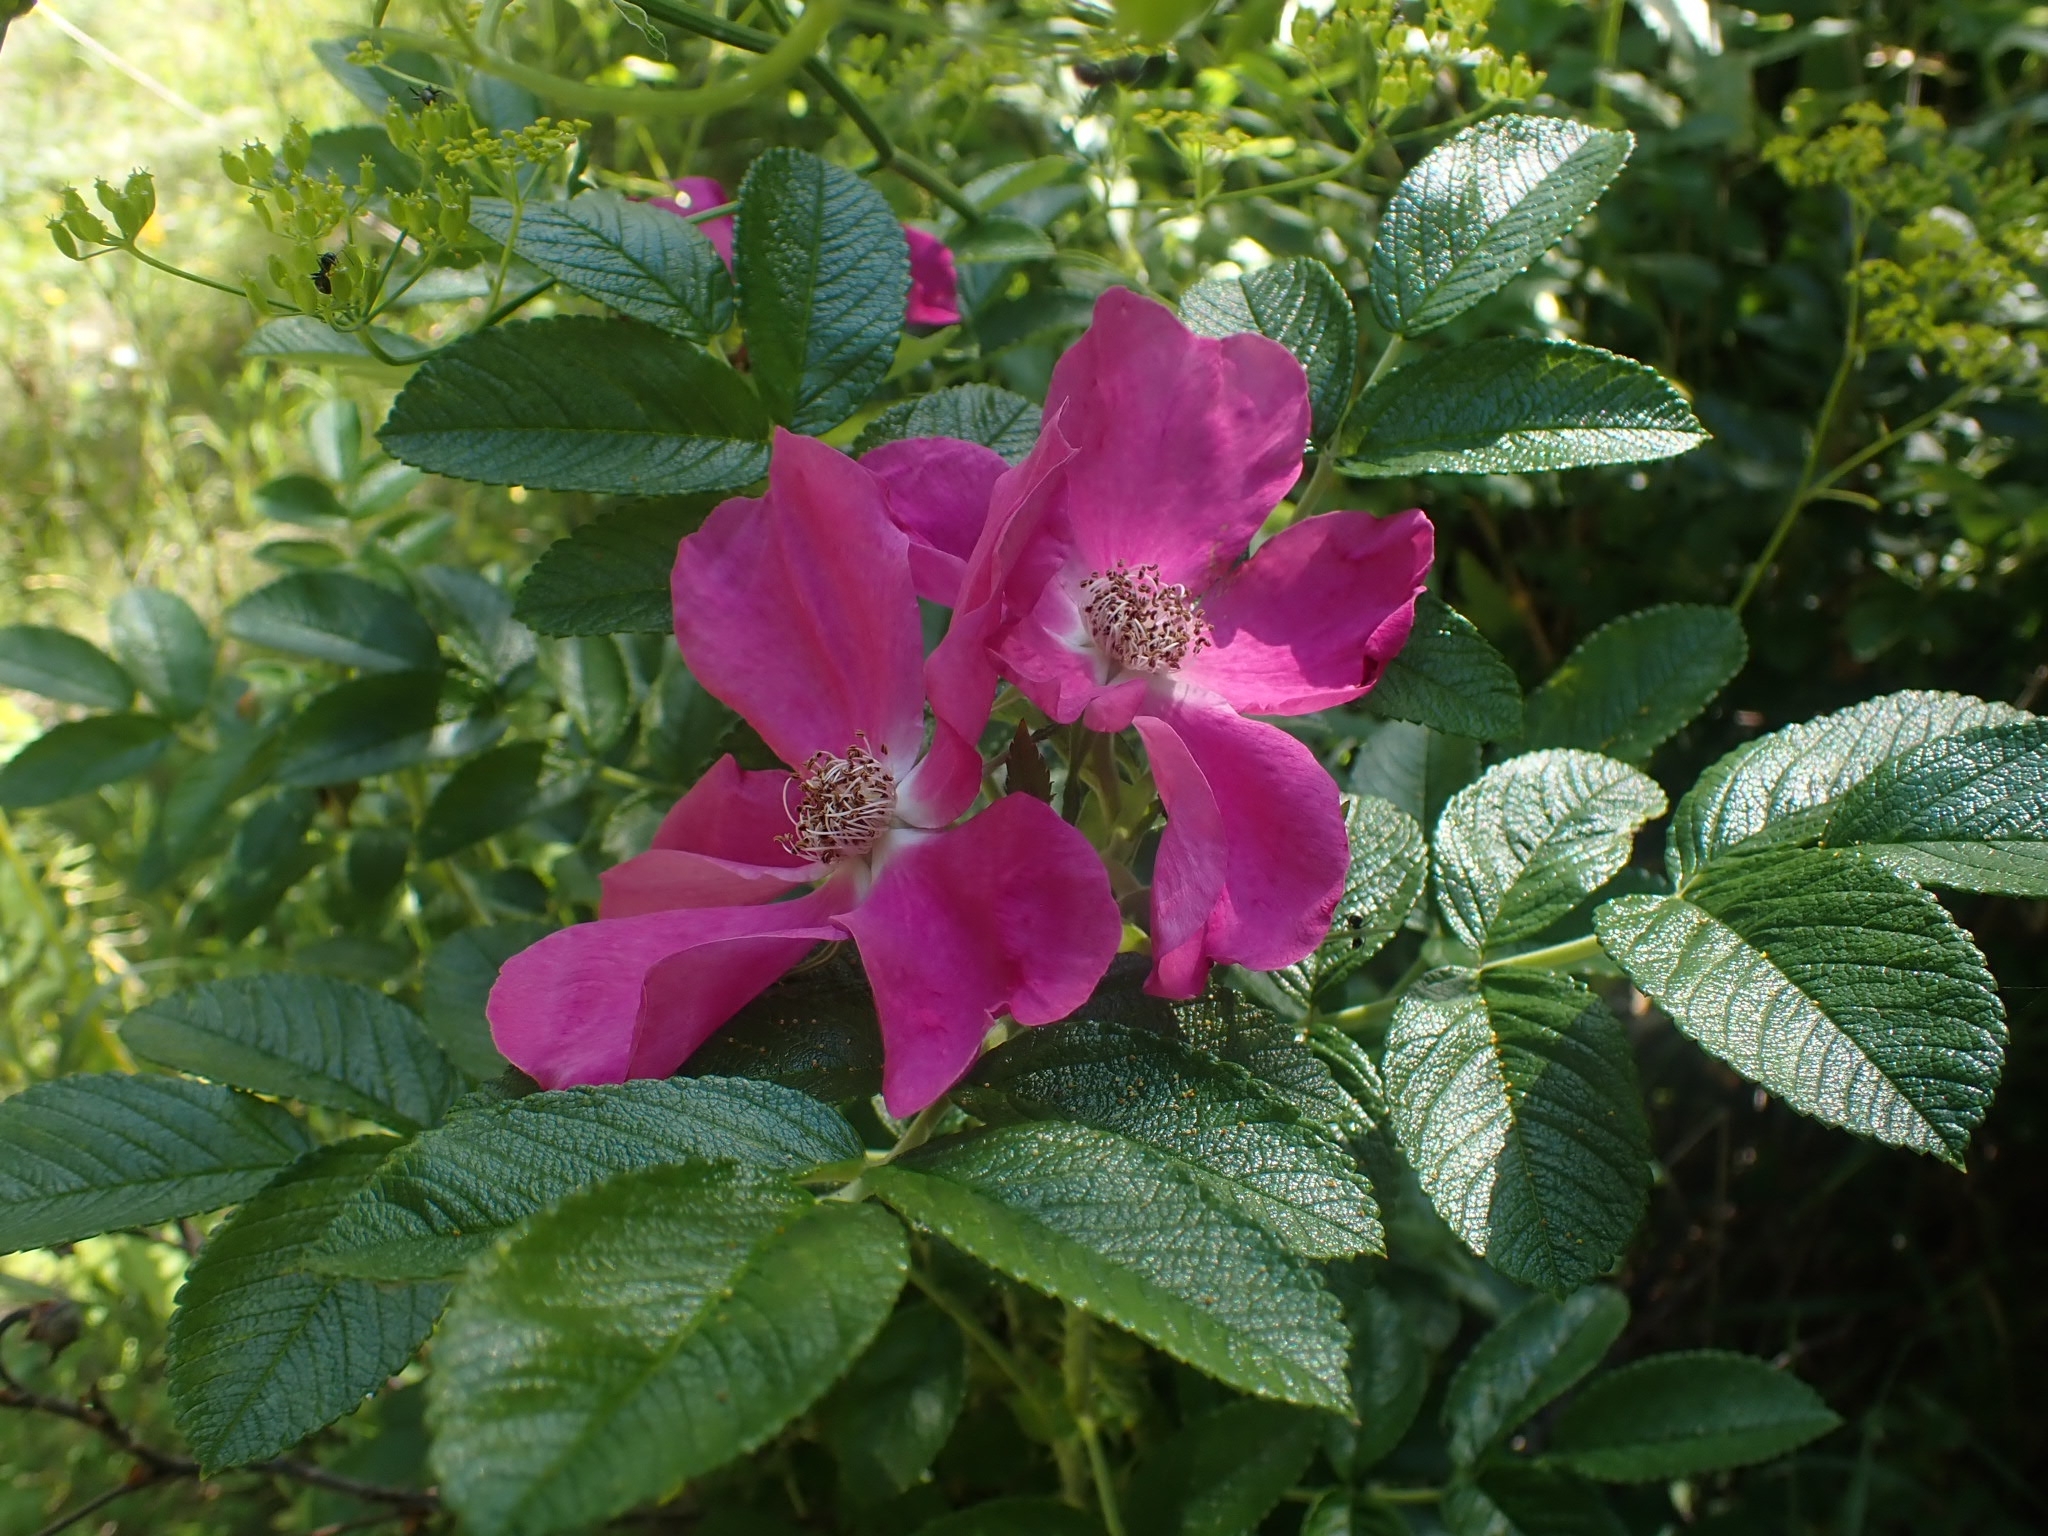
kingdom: Plantae
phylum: Tracheophyta
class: Magnoliopsida
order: Rosales
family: Rosaceae
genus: Rosa
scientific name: Rosa rugosa
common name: Japanese rose
